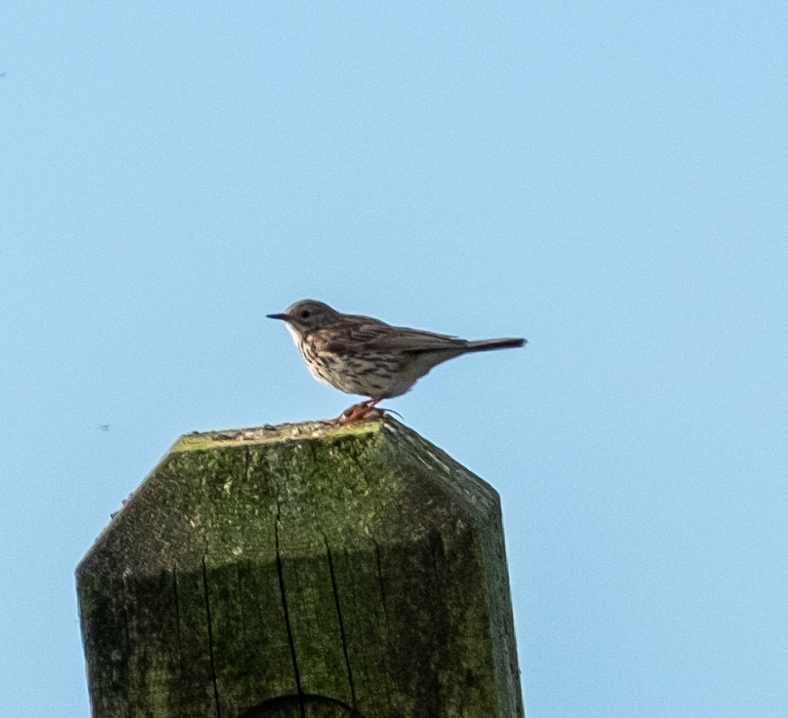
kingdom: Animalia
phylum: Chordata
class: Aves
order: Passeriformes
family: Motacillidae
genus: Anthus
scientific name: Anthus pratensis
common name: Meadow pipit
